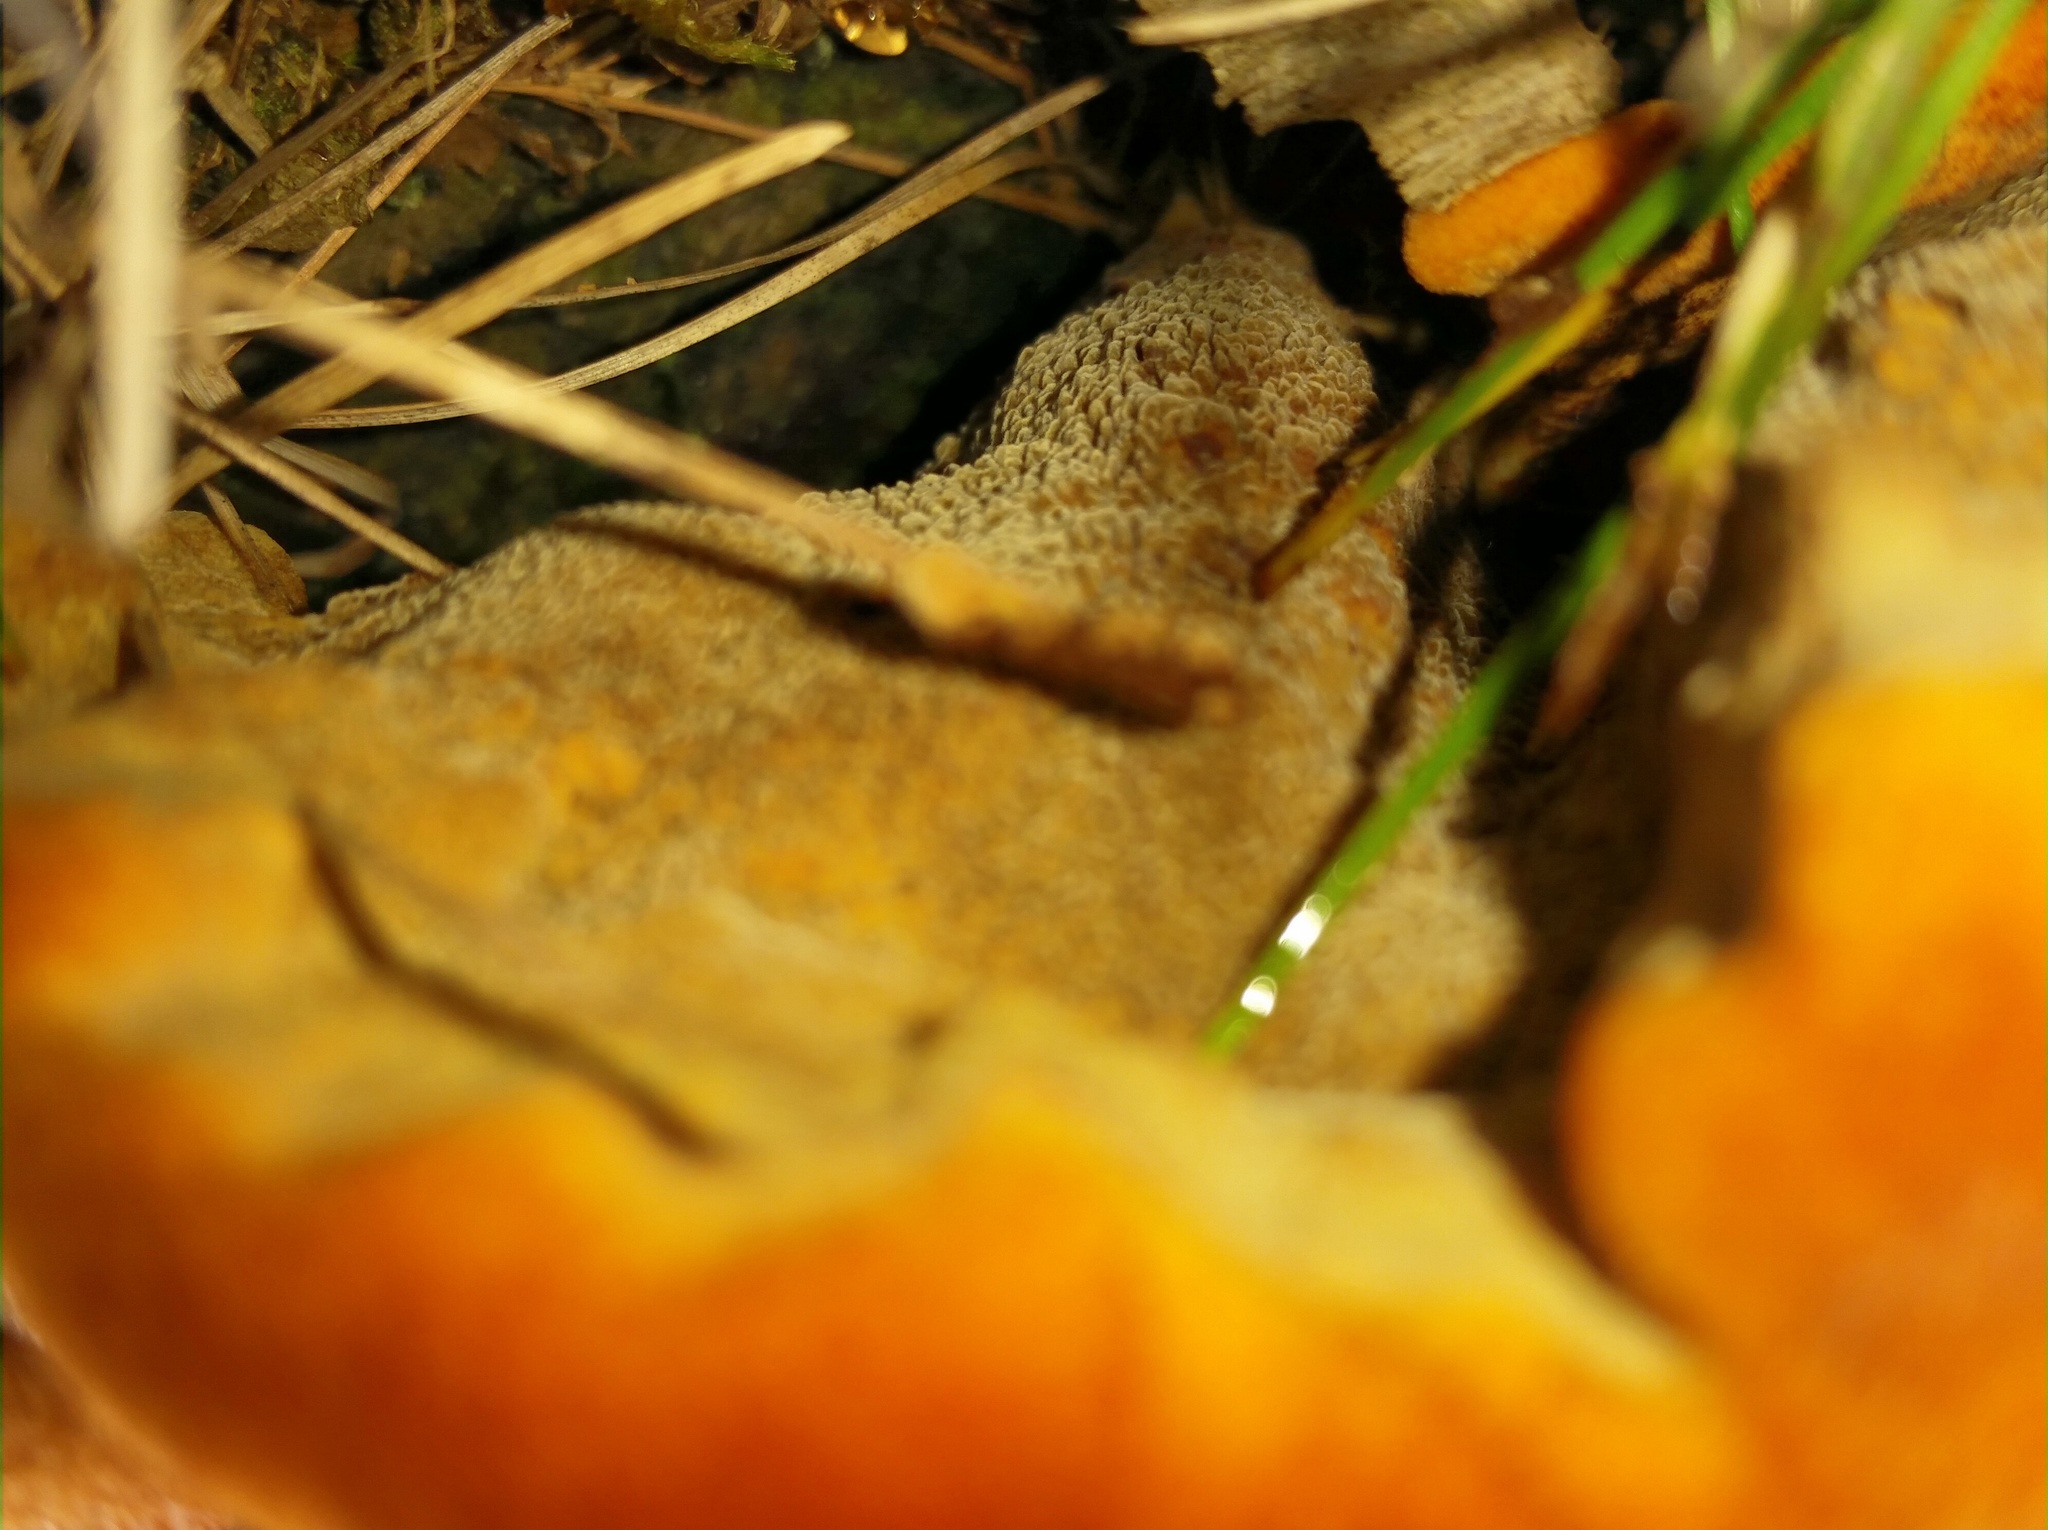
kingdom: Fungi
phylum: Basidiomycota
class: Agaricomycetes
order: Polyporales
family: Laetiporaceae
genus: Phaeolus
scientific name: Phaeolus schweinitzii
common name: Dyer's mazegill
